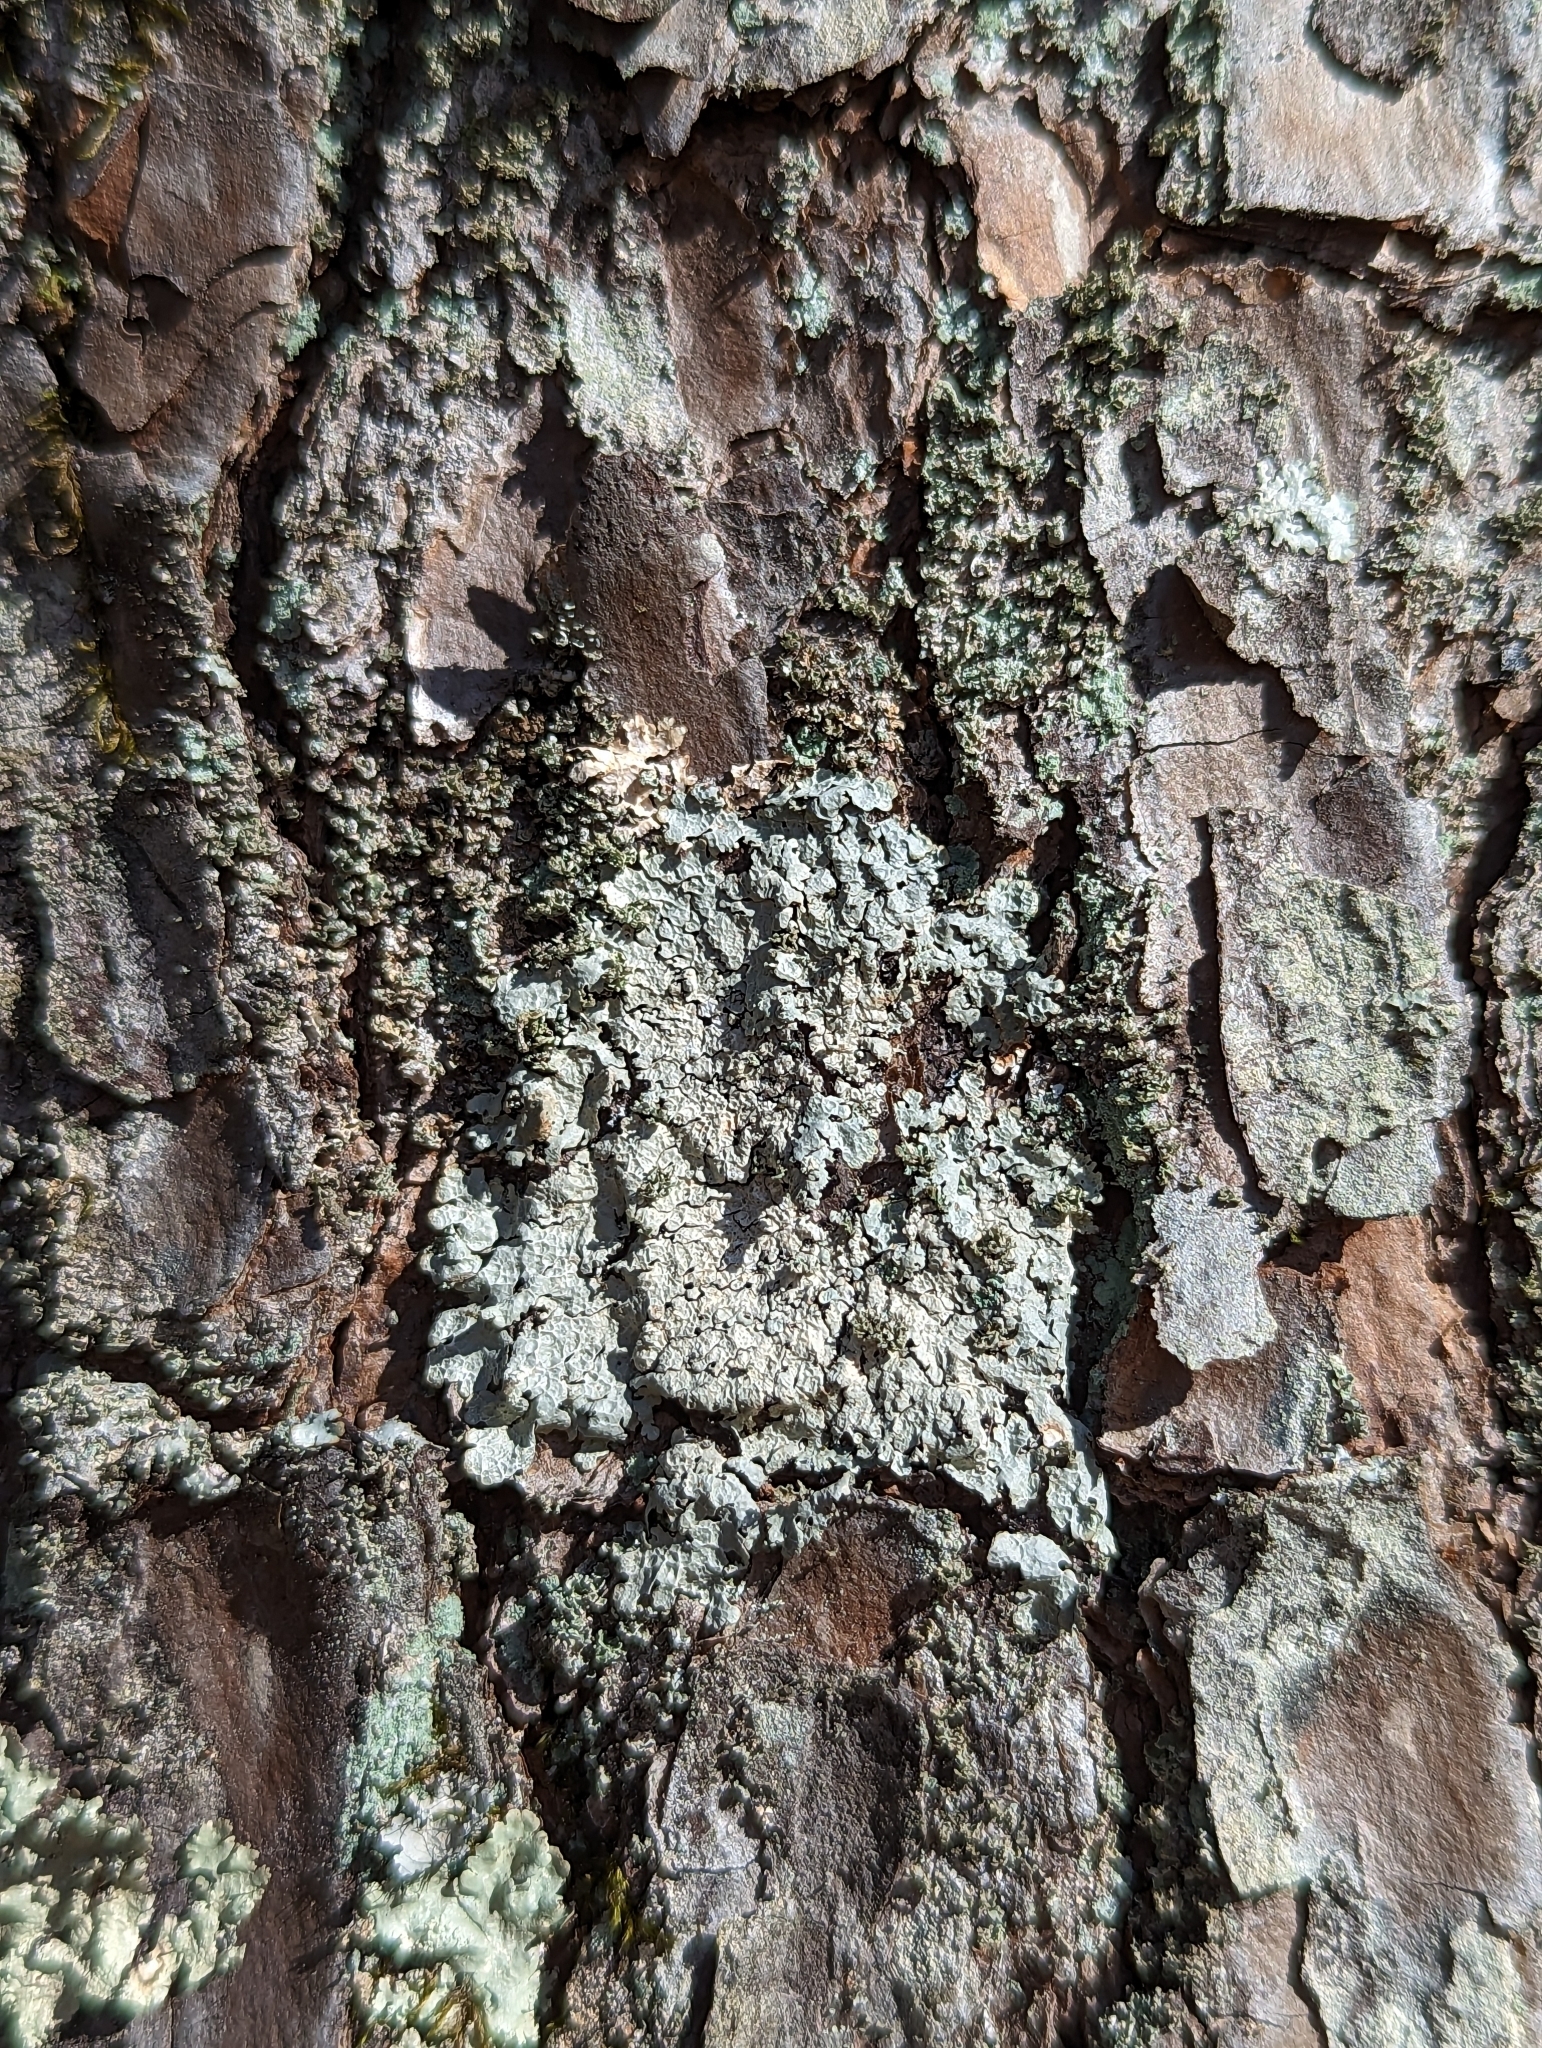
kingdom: Fungi
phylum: Ascomycota
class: Lecanoromycetes
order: Lecanorales
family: Parmeliaceae
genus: Crespoa
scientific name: Crespoa crozalsiana
